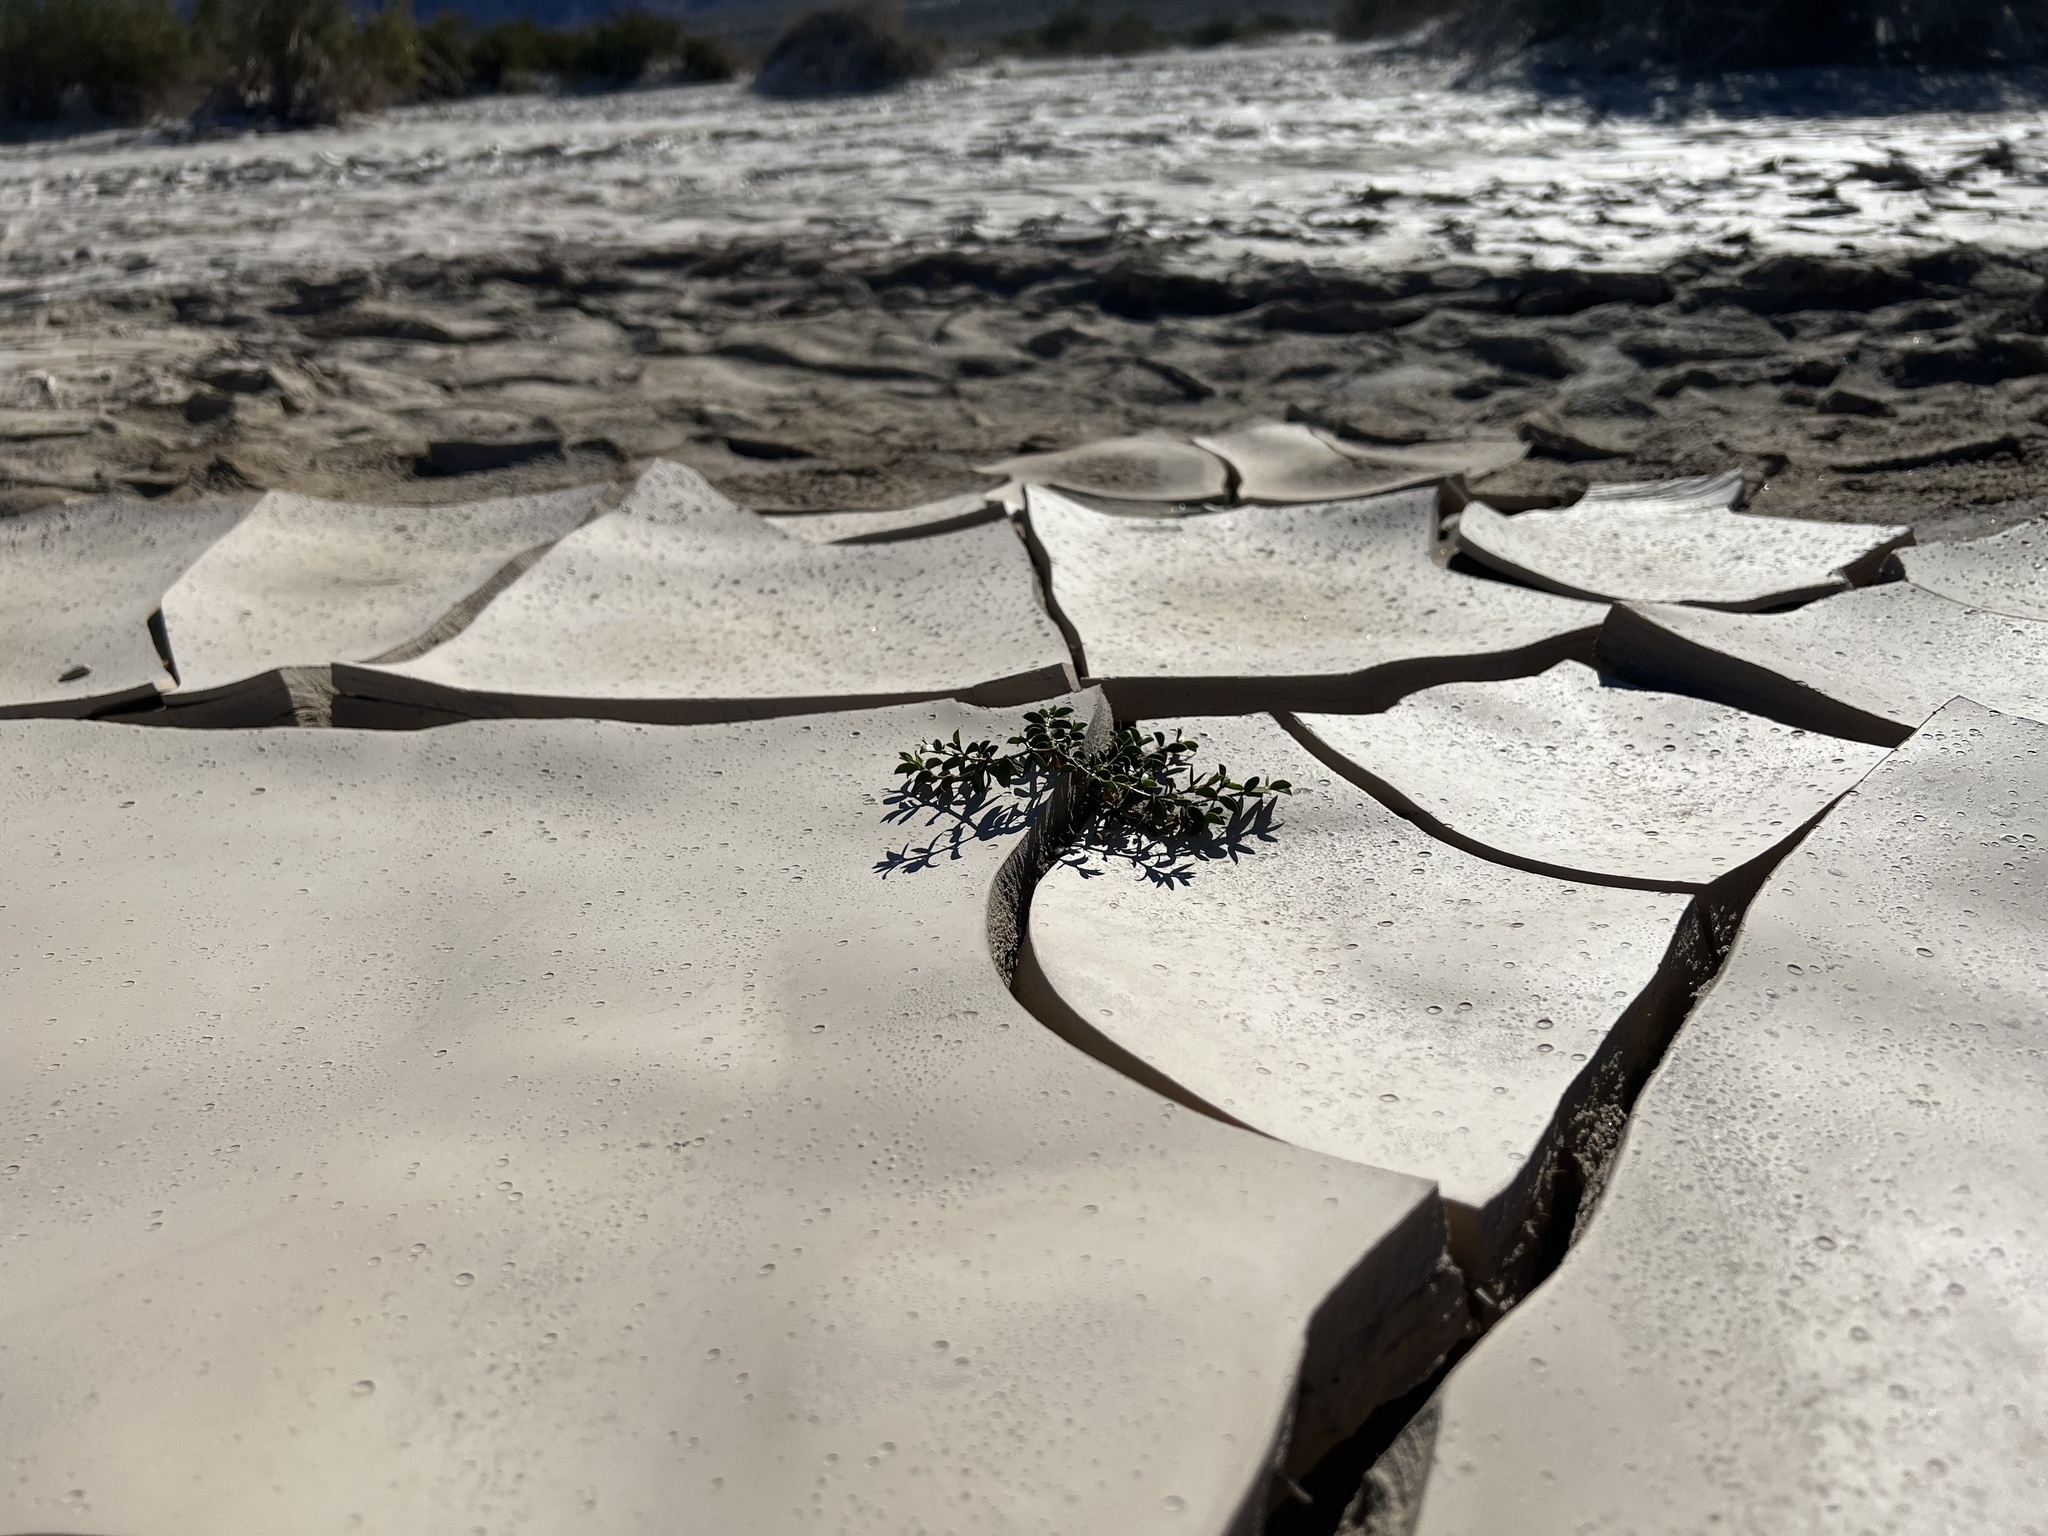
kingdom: Plantae
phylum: Tracheophyta
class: Magnoliopsida
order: Zygophyllales
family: Zygophyllaceae
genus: Larrea
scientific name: Larrea tridentata
